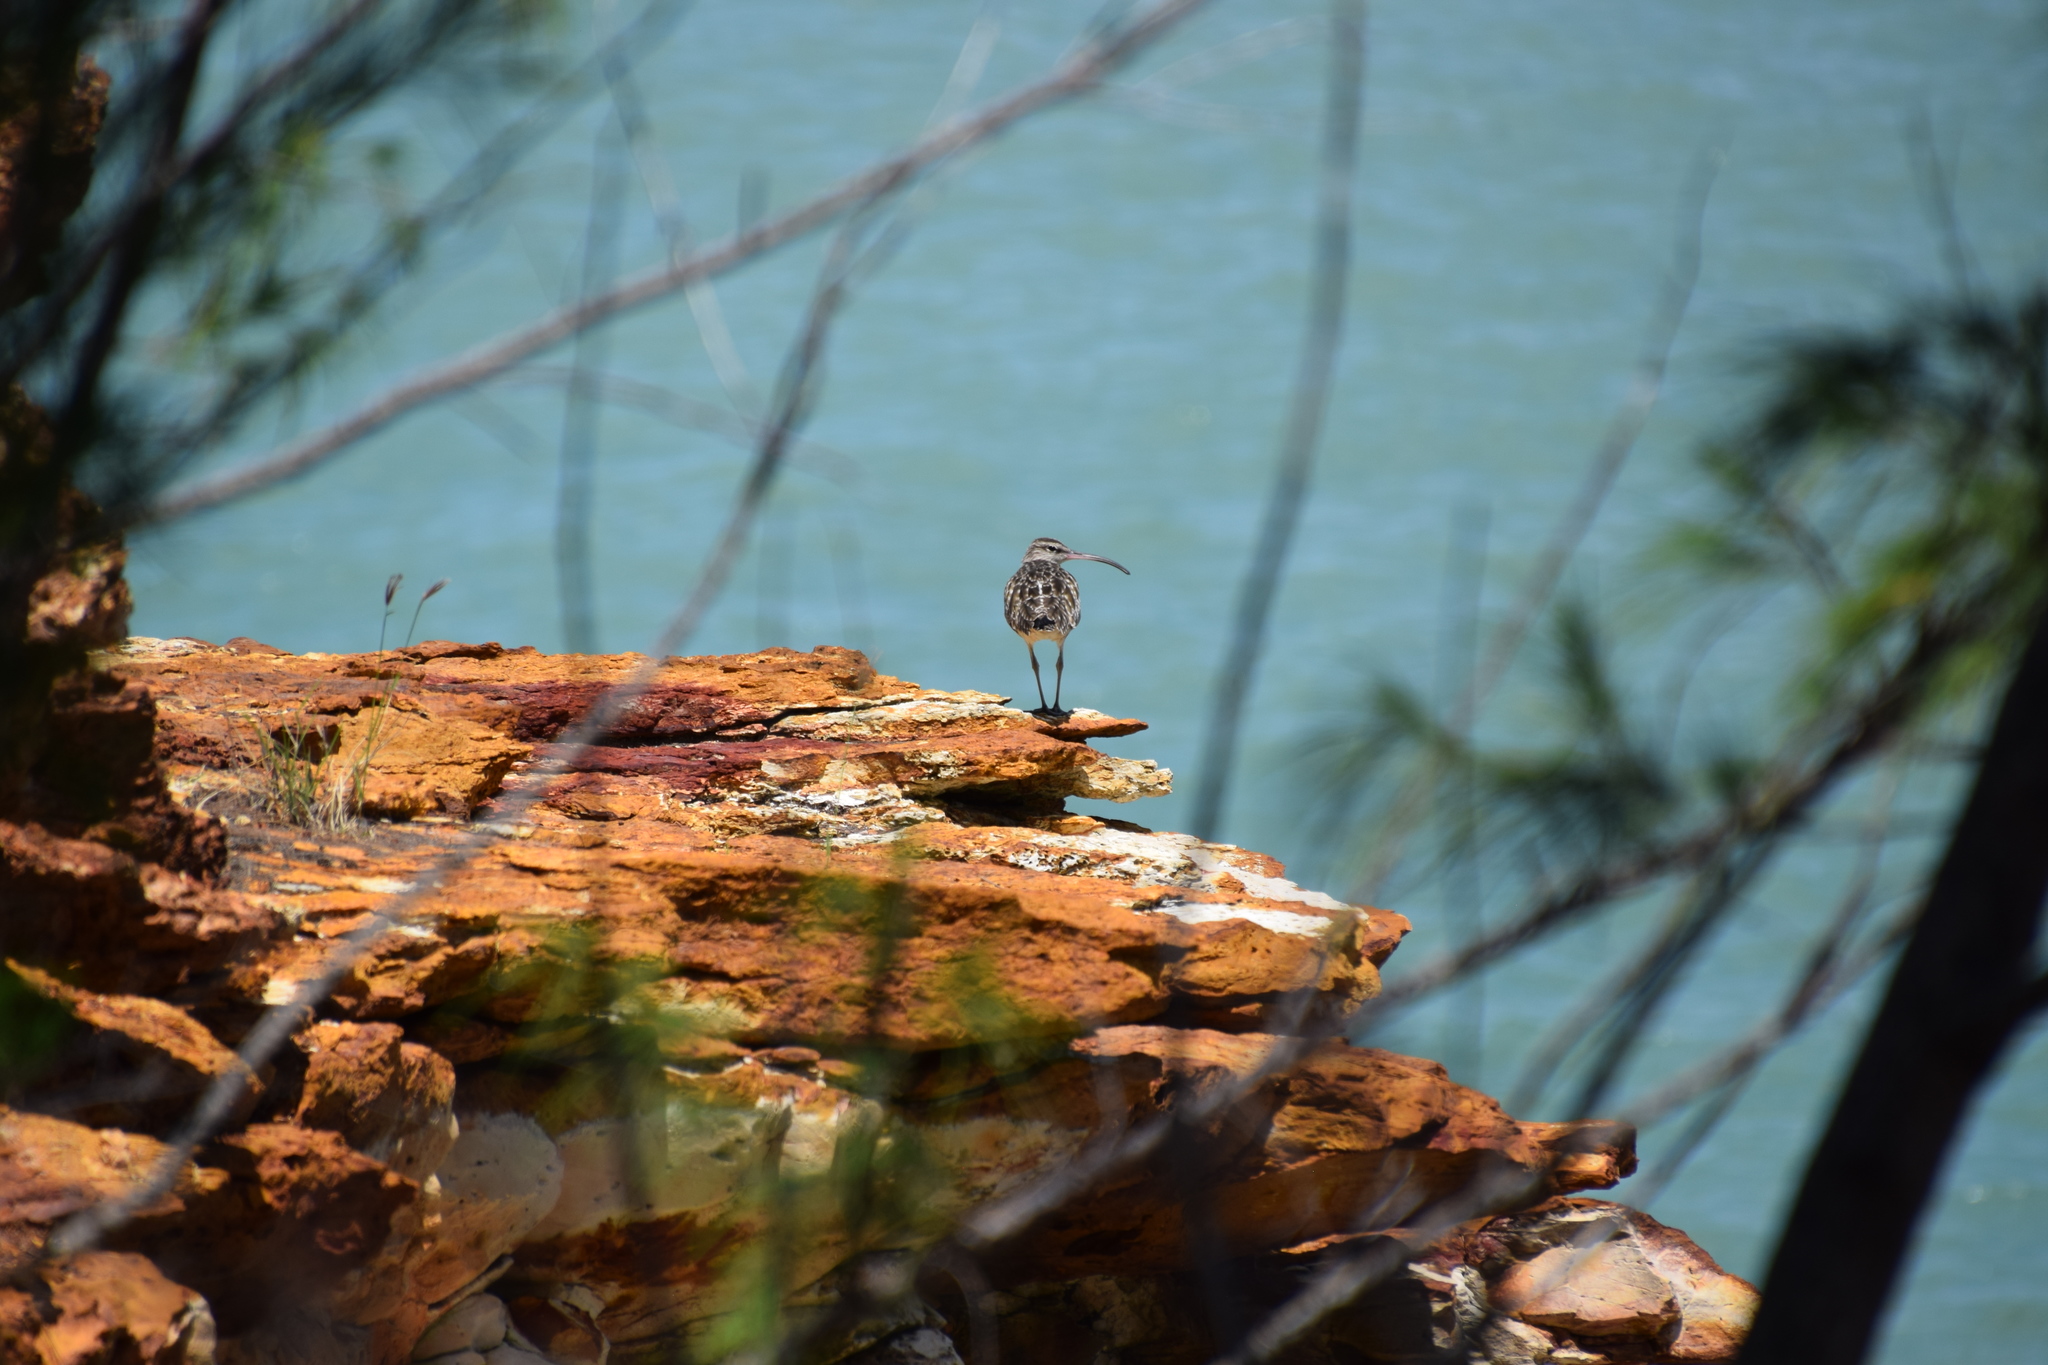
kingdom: Animalia
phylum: Chordata
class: Aves
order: Charadriiformes
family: Scolopacidae
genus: Numenius
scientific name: Numenius phaeopus
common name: Whimbrel
